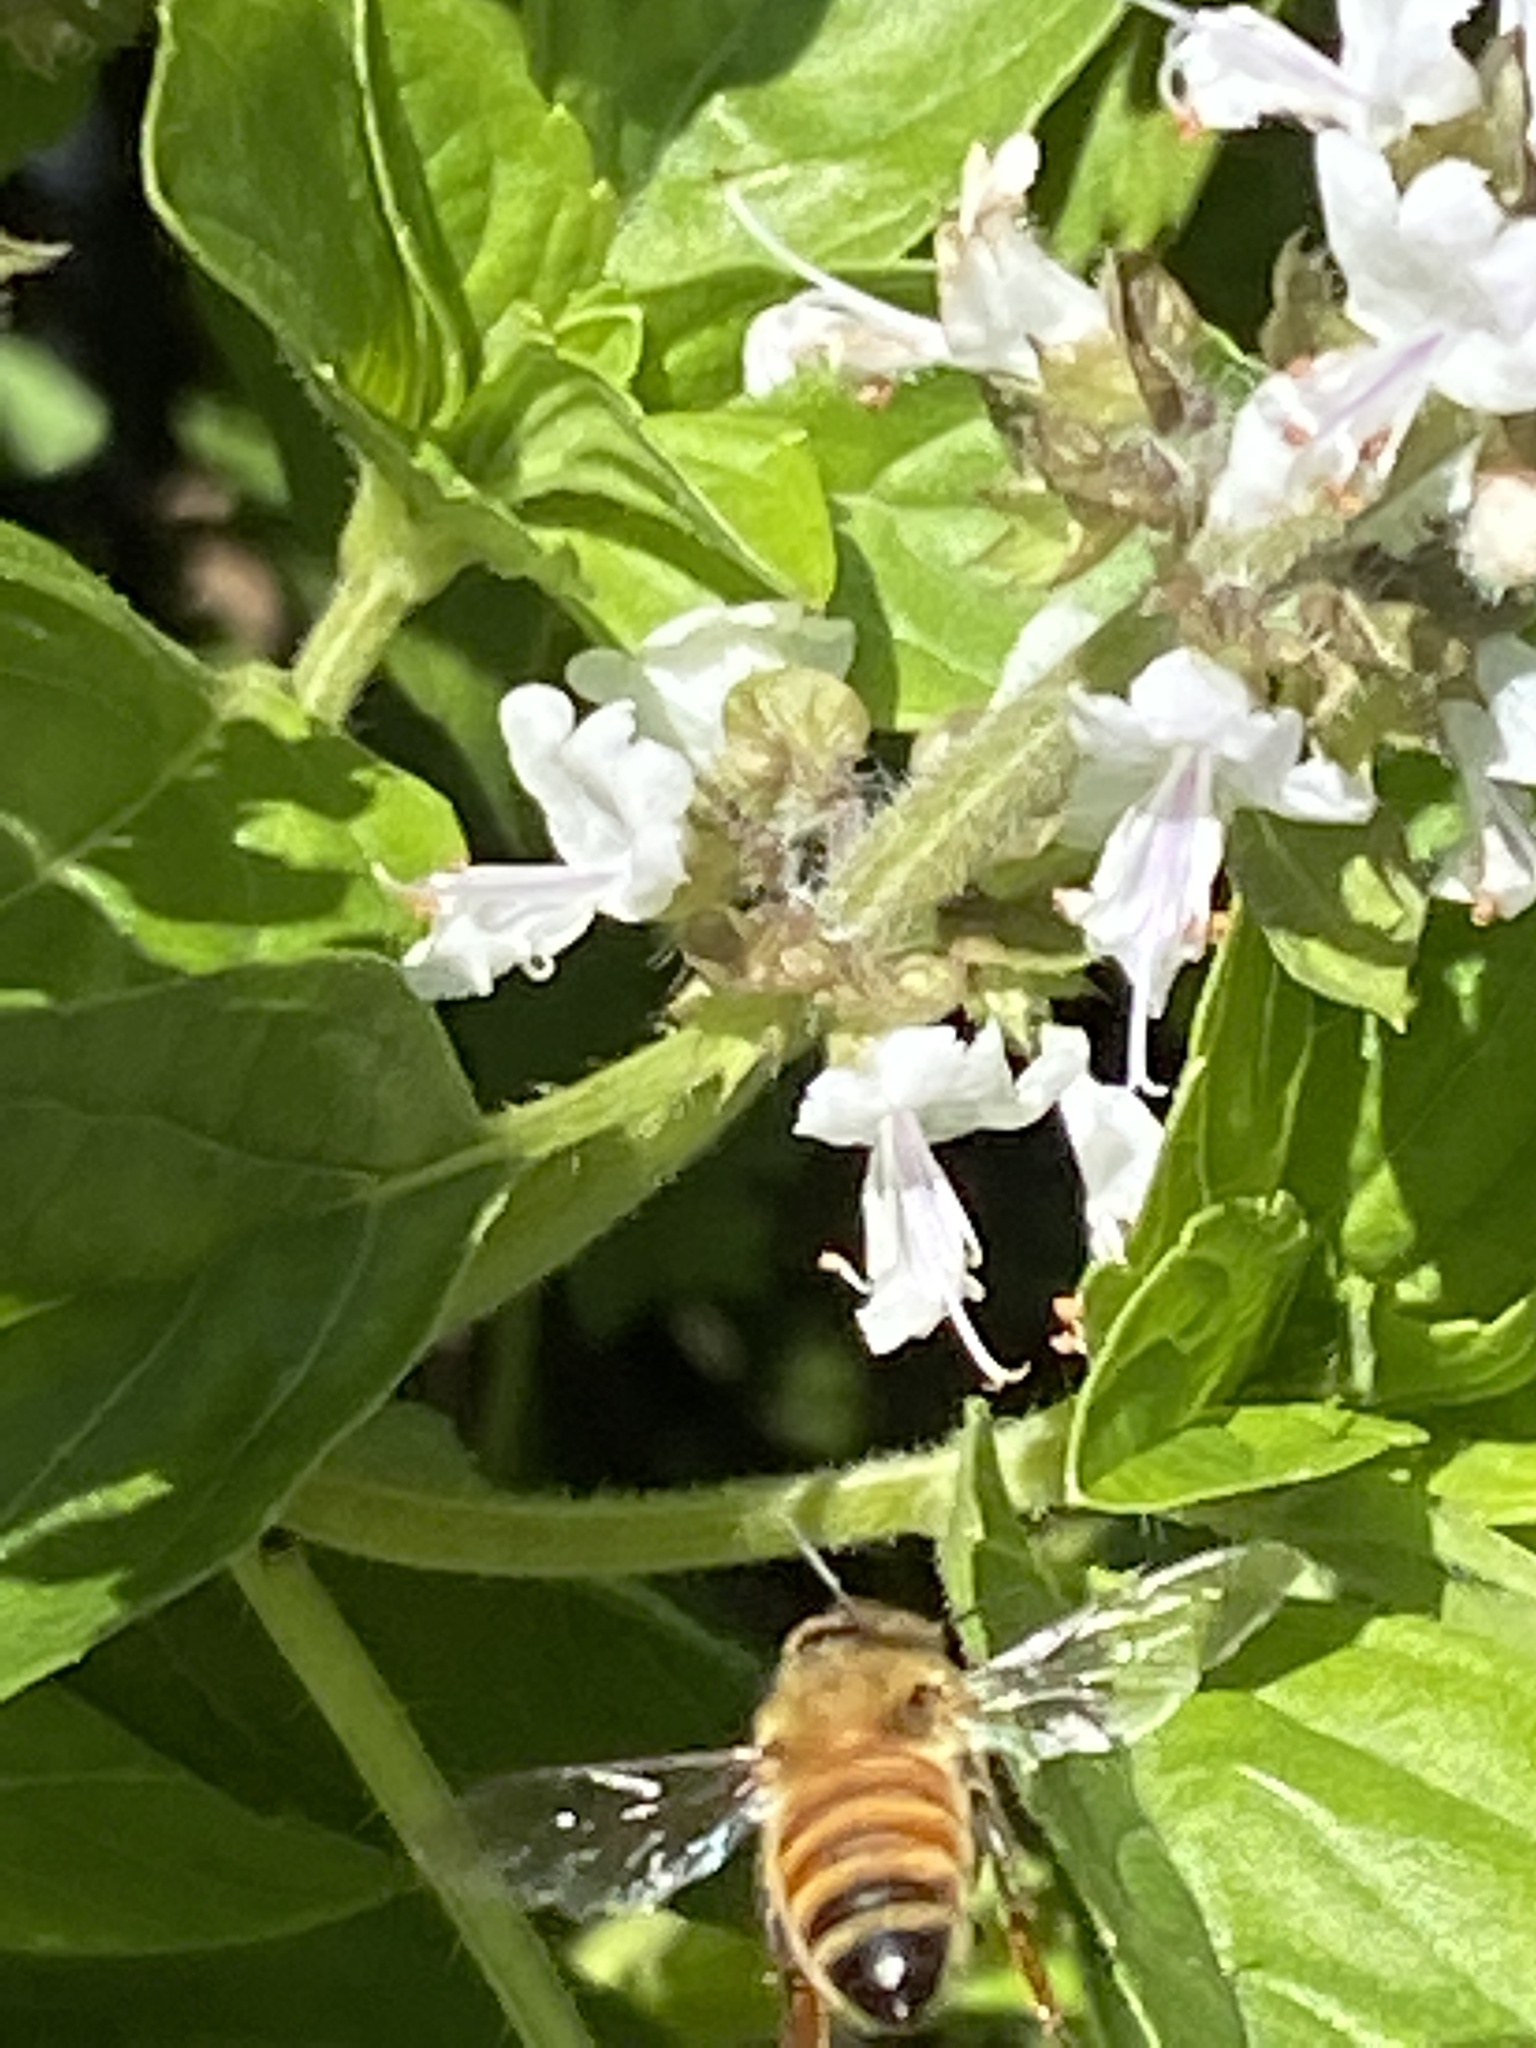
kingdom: Animalia
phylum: Arthropoda
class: Insecta
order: Hymenoptera
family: Apidae
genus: Apis
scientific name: Apis mellifera
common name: Honey bee
